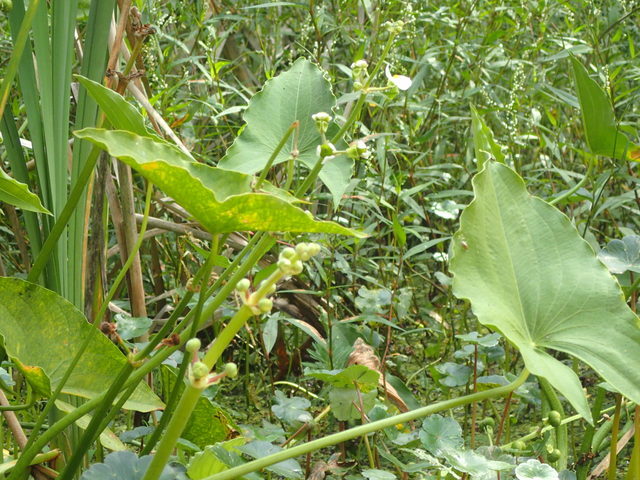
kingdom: Plantae
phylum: Tracheophyta
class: Liliopsida
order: Alismatales
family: Alismataceae
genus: Sagittaria
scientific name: Sagittaria latifolia
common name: Duck-potato
